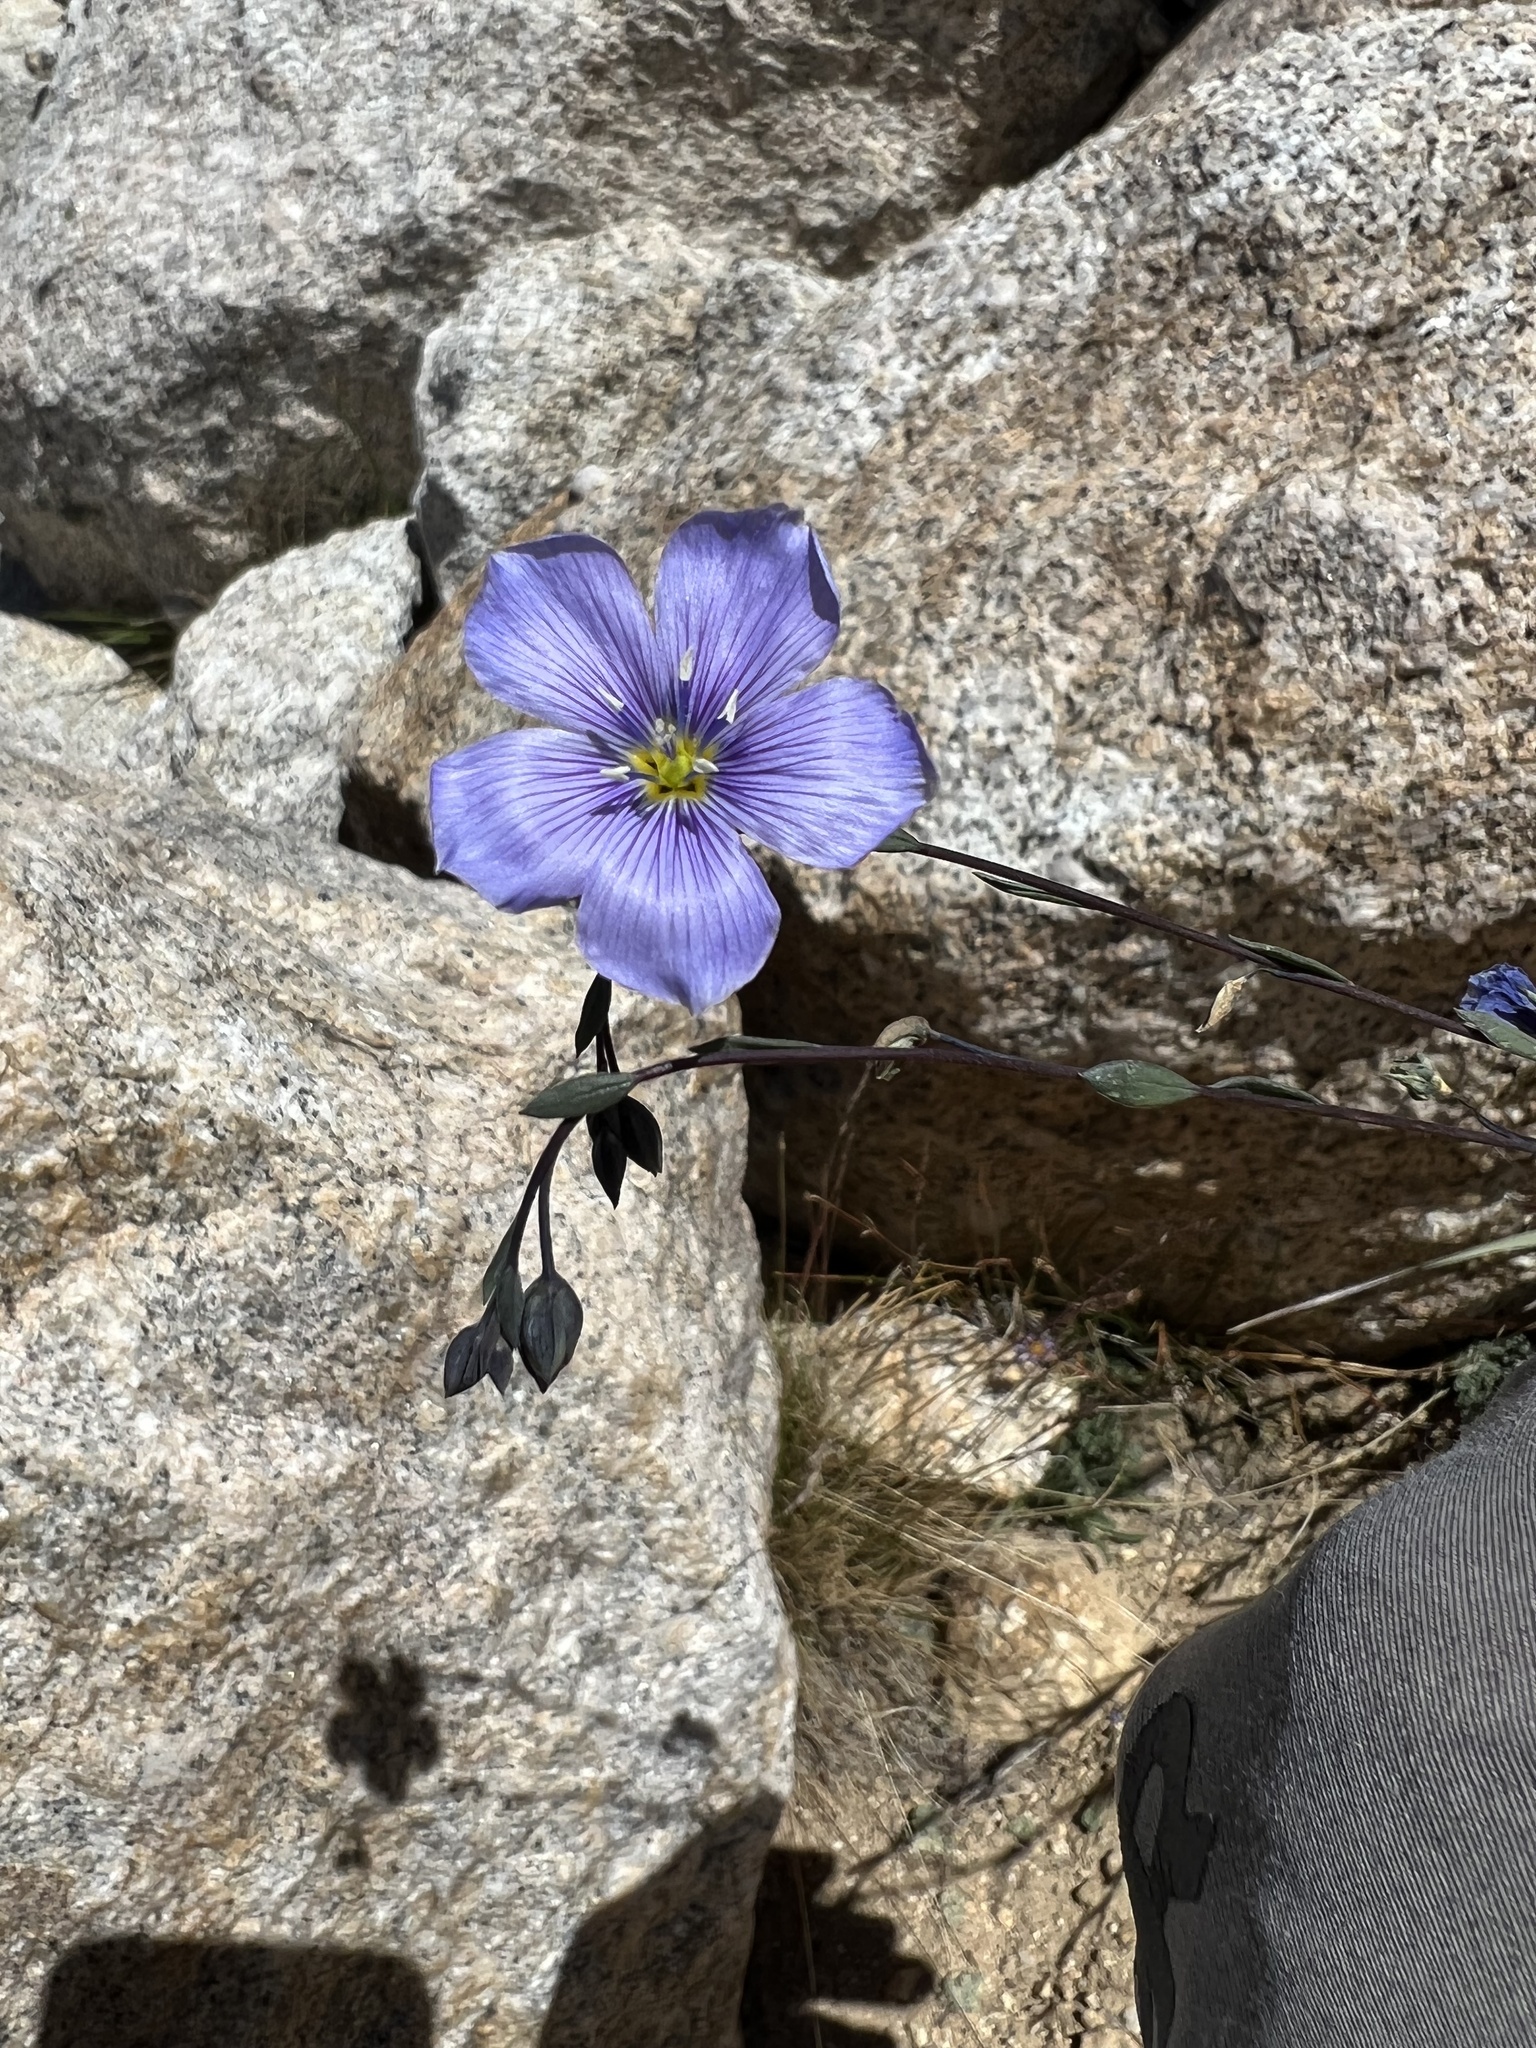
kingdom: Plantae
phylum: Tracheophyta
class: Magnoliopsida
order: Malpighiales
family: Linaceae
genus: Linum
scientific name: Linum lewisii
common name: Prairie flax
